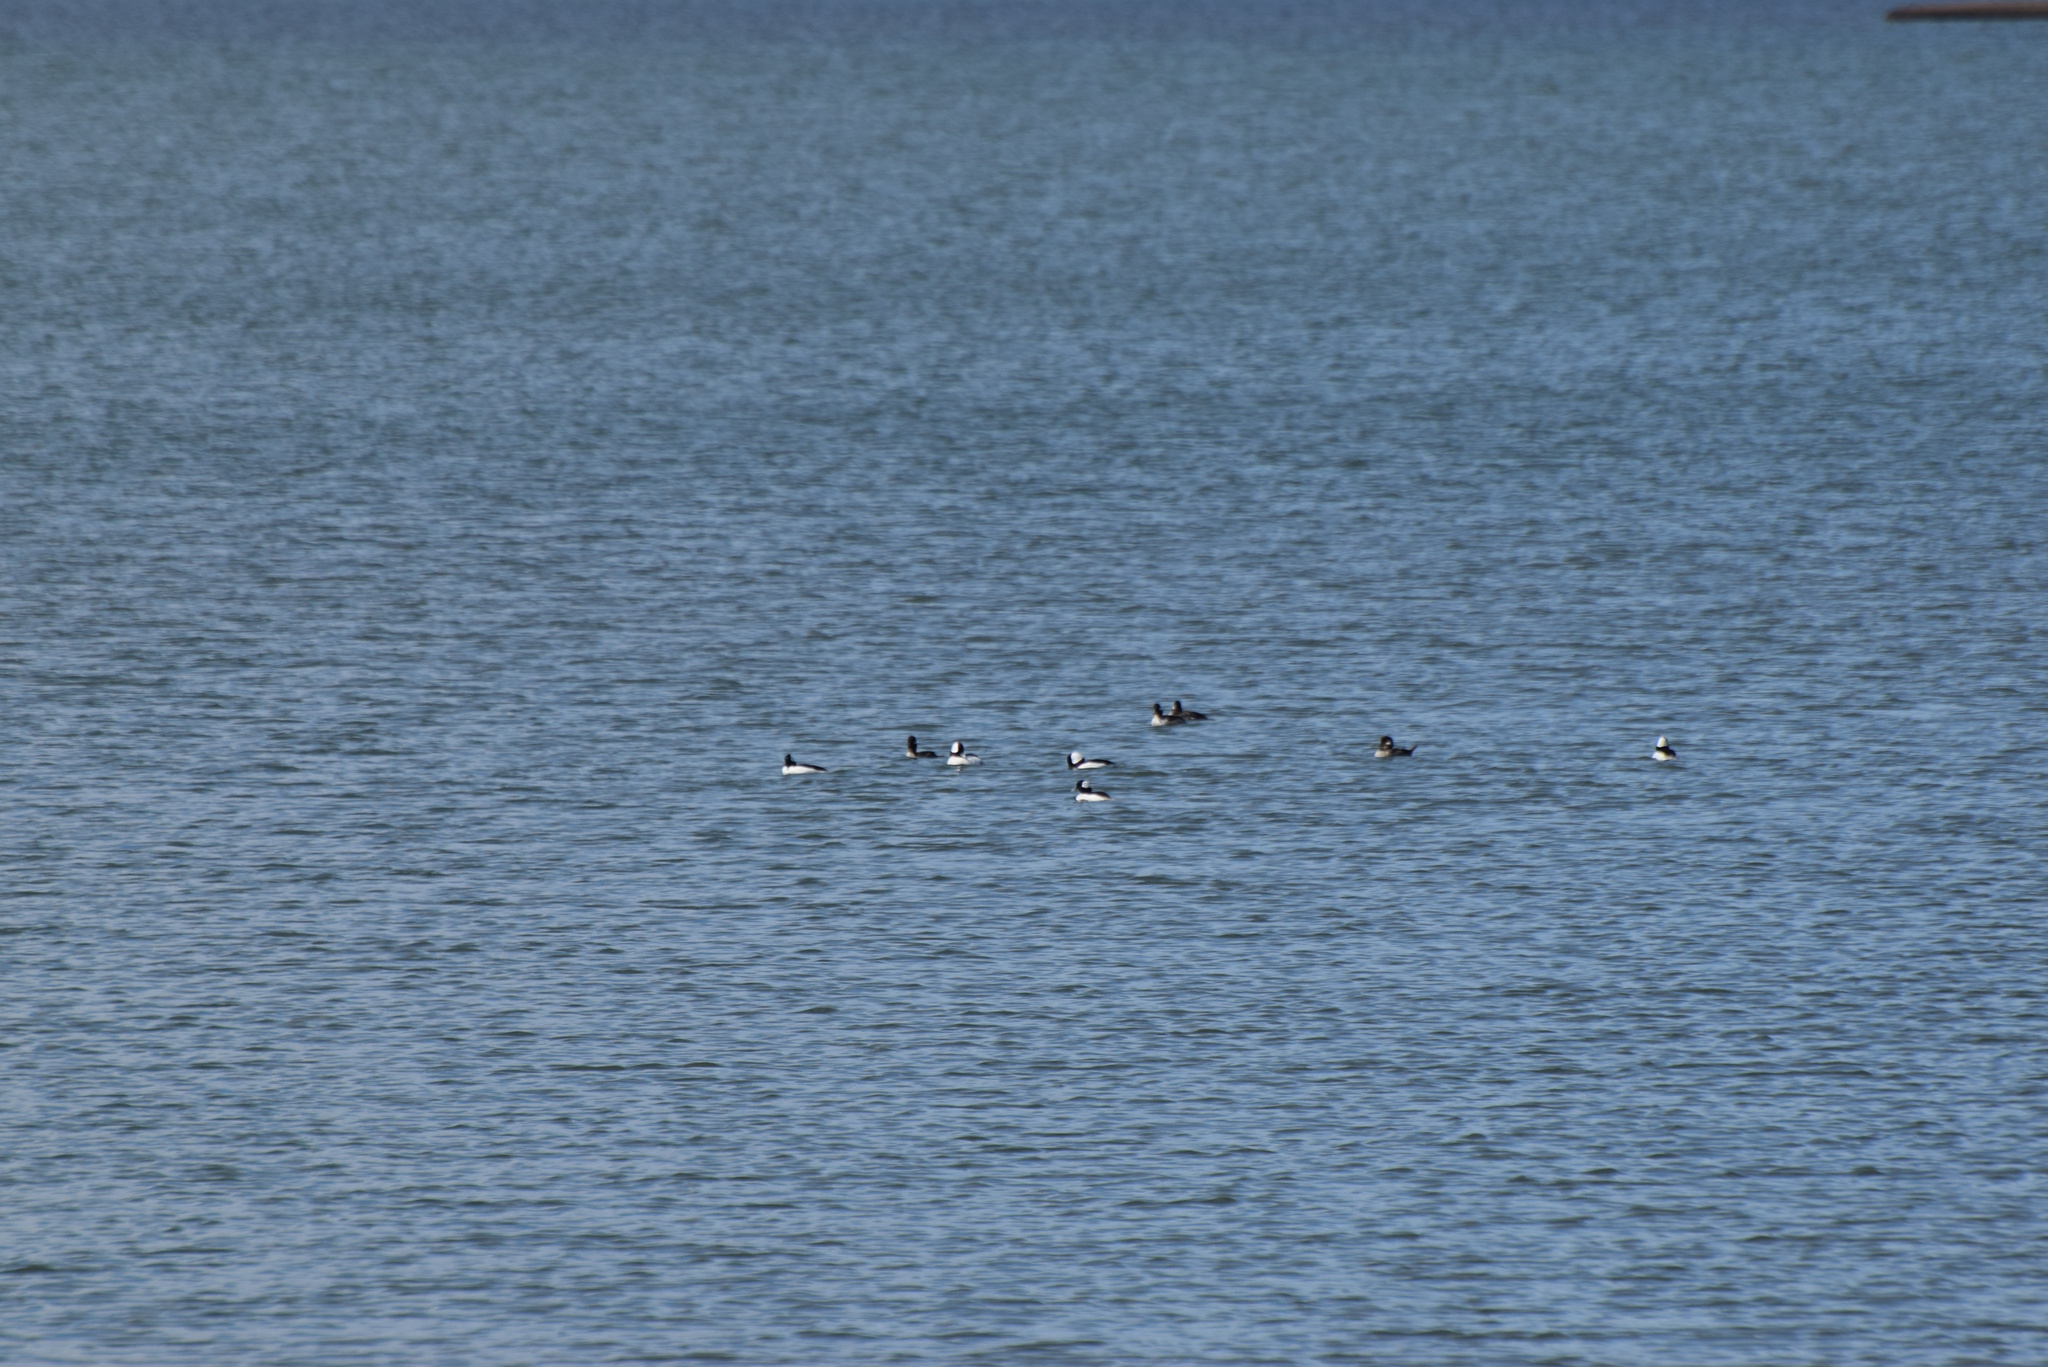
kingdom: Animalia
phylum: Chordata
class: Aves
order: Anseriformes
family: Anatidae
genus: Bucephala
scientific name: Bucephala albeola
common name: Bufflehead
